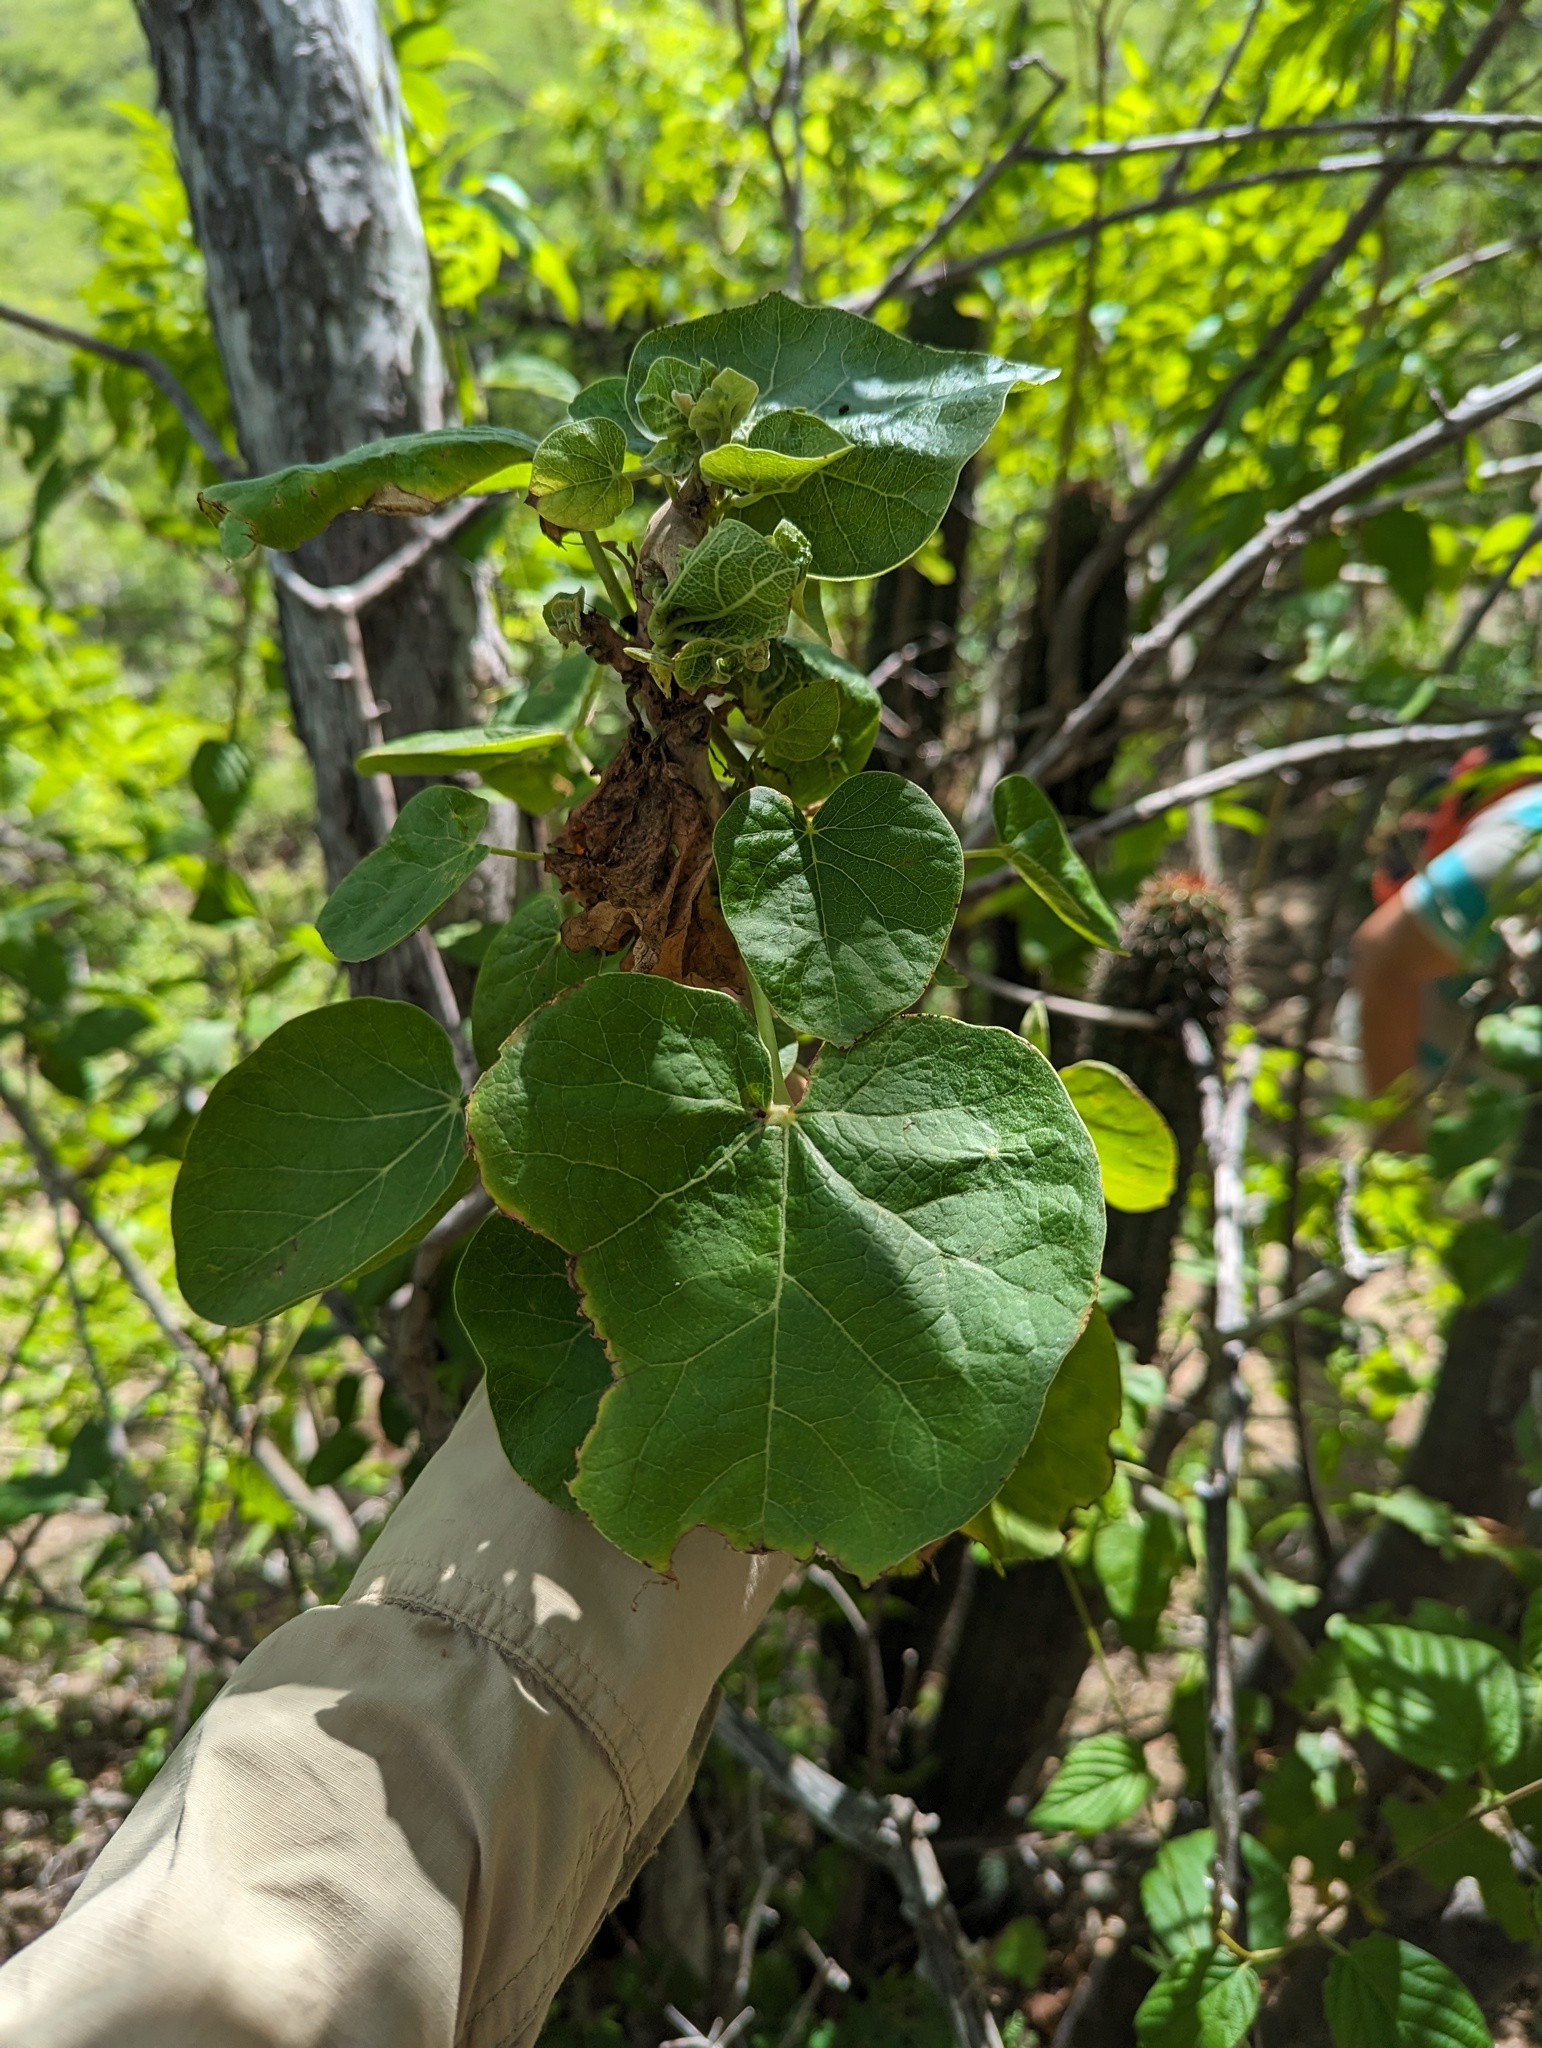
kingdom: Plantae
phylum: Tracheophyta
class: Magnoliopsida
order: Malpighiales
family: Euphorbiaceae
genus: Jatropha
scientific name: Jatropha cinerea
